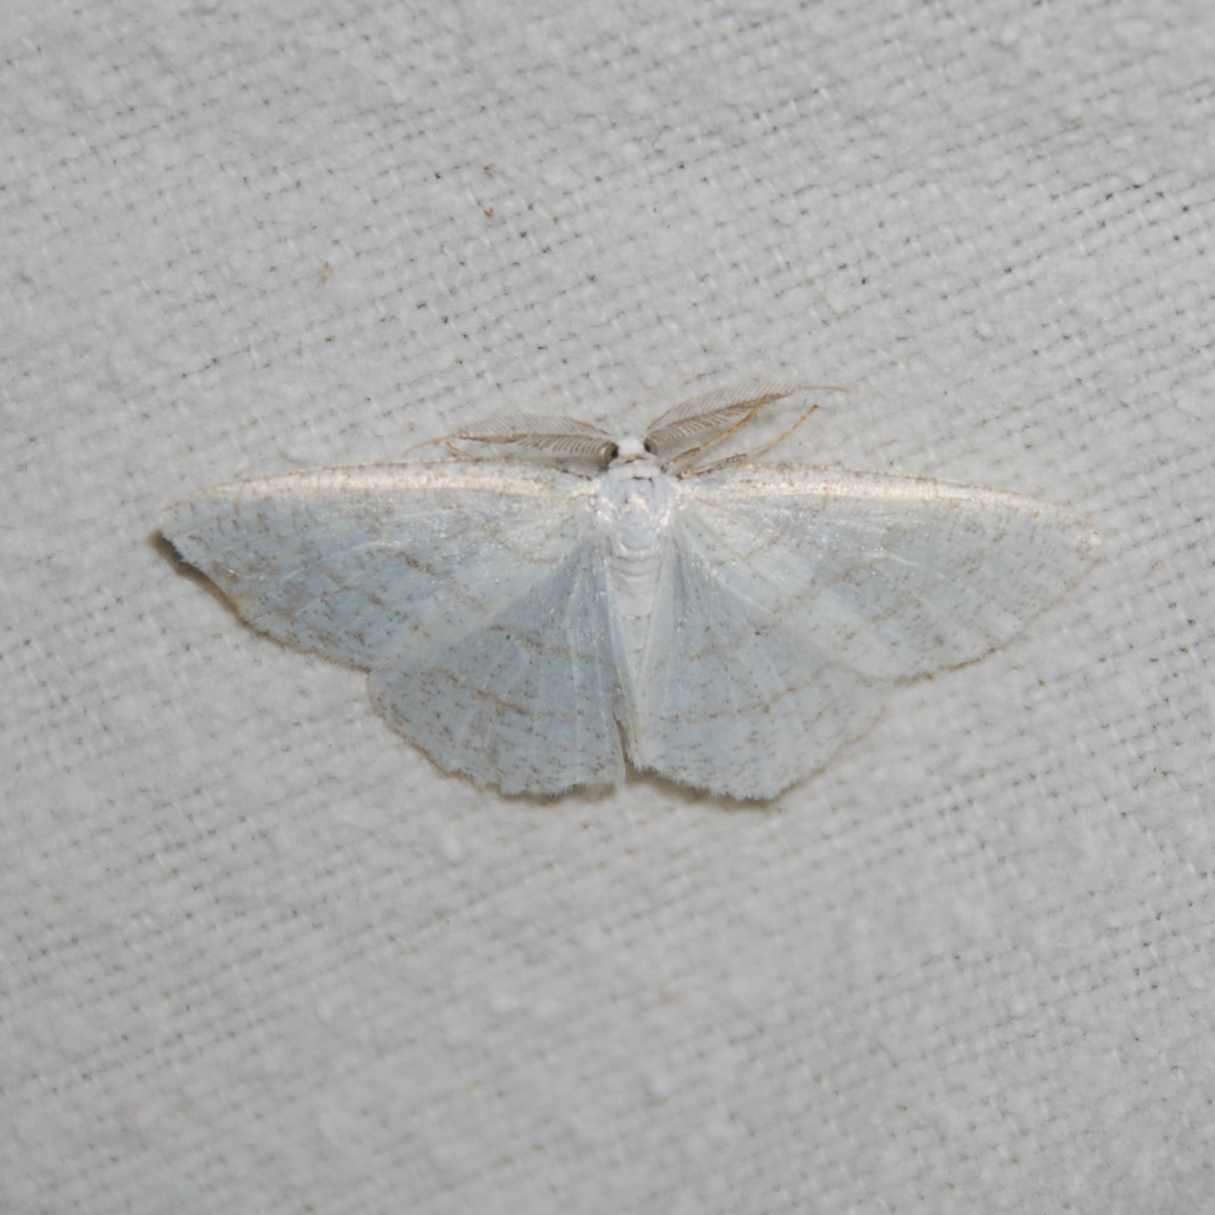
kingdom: Animalia
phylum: Arthropoda
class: Insecta
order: Lepidoptera
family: Geometridae
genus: Cabera
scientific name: Cabera pusaria
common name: Common white wave
